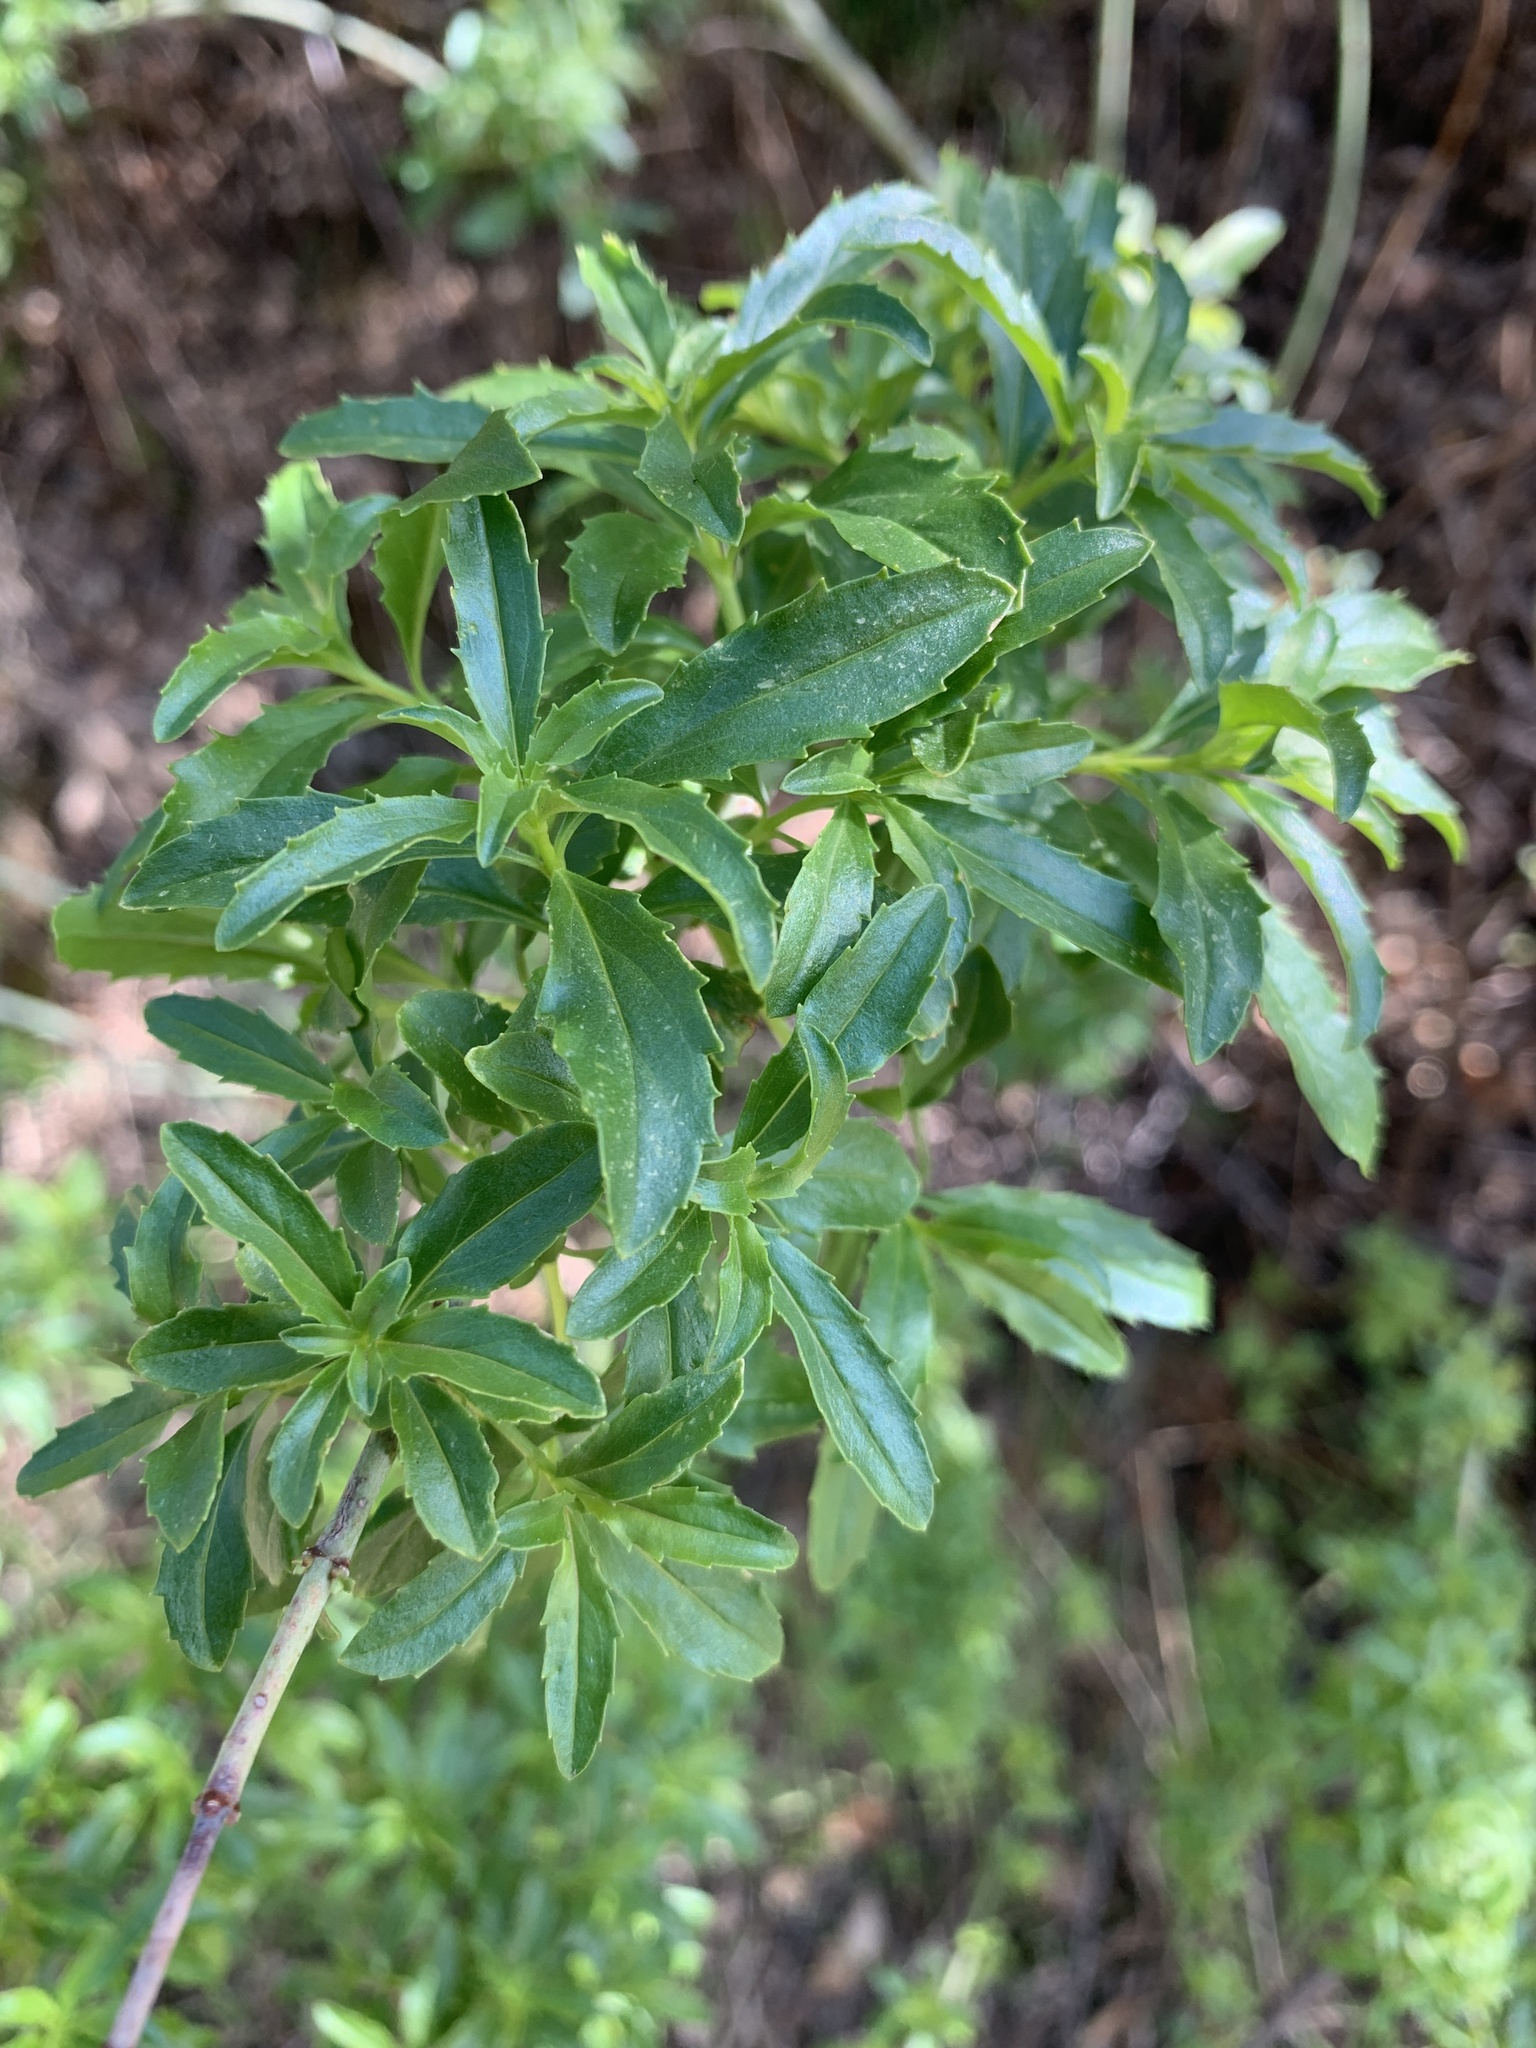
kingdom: Plantae
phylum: Tracheophyta
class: Magnoliopsida
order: Lamiales
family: Plantaginaceae
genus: Keckiella
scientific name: Keckiella ternata
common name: Scarlet keckiella
